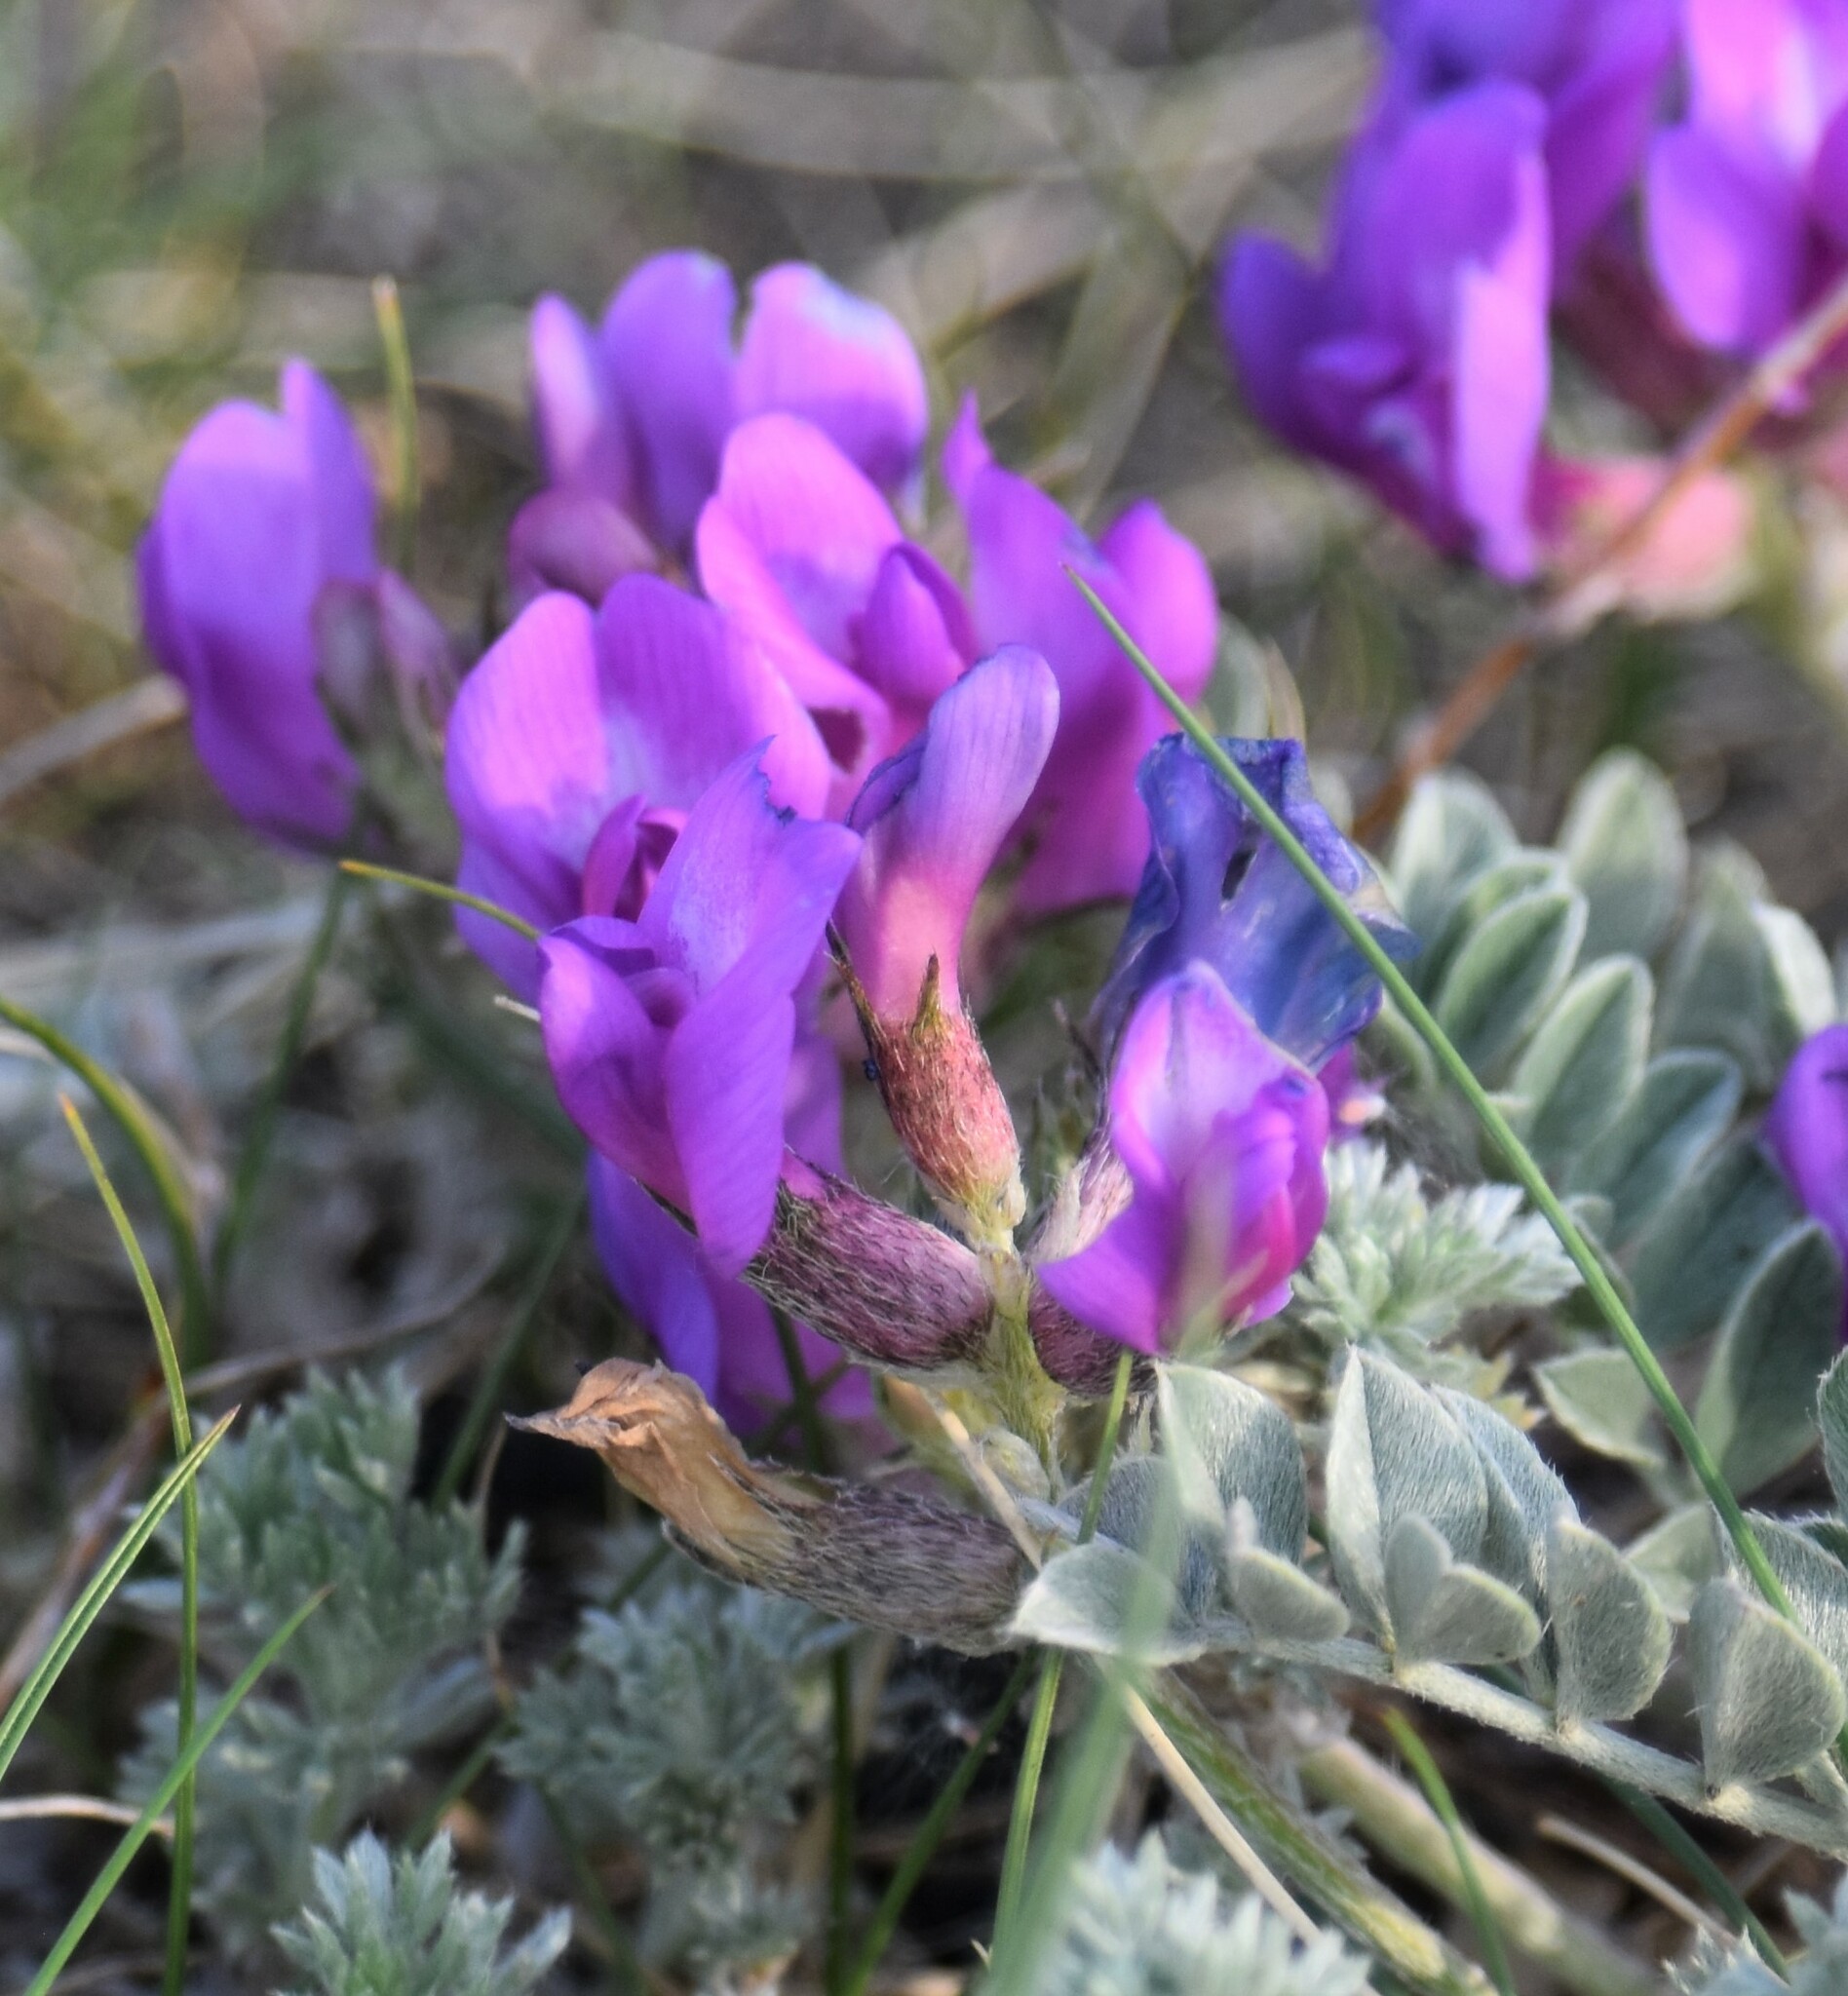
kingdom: Plantae
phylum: Tracheophyta
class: Magnoliopsida
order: Fabales
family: Fabaceae
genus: Astragalus
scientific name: Astragalus missouriensis
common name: Missouri milk-vetch
